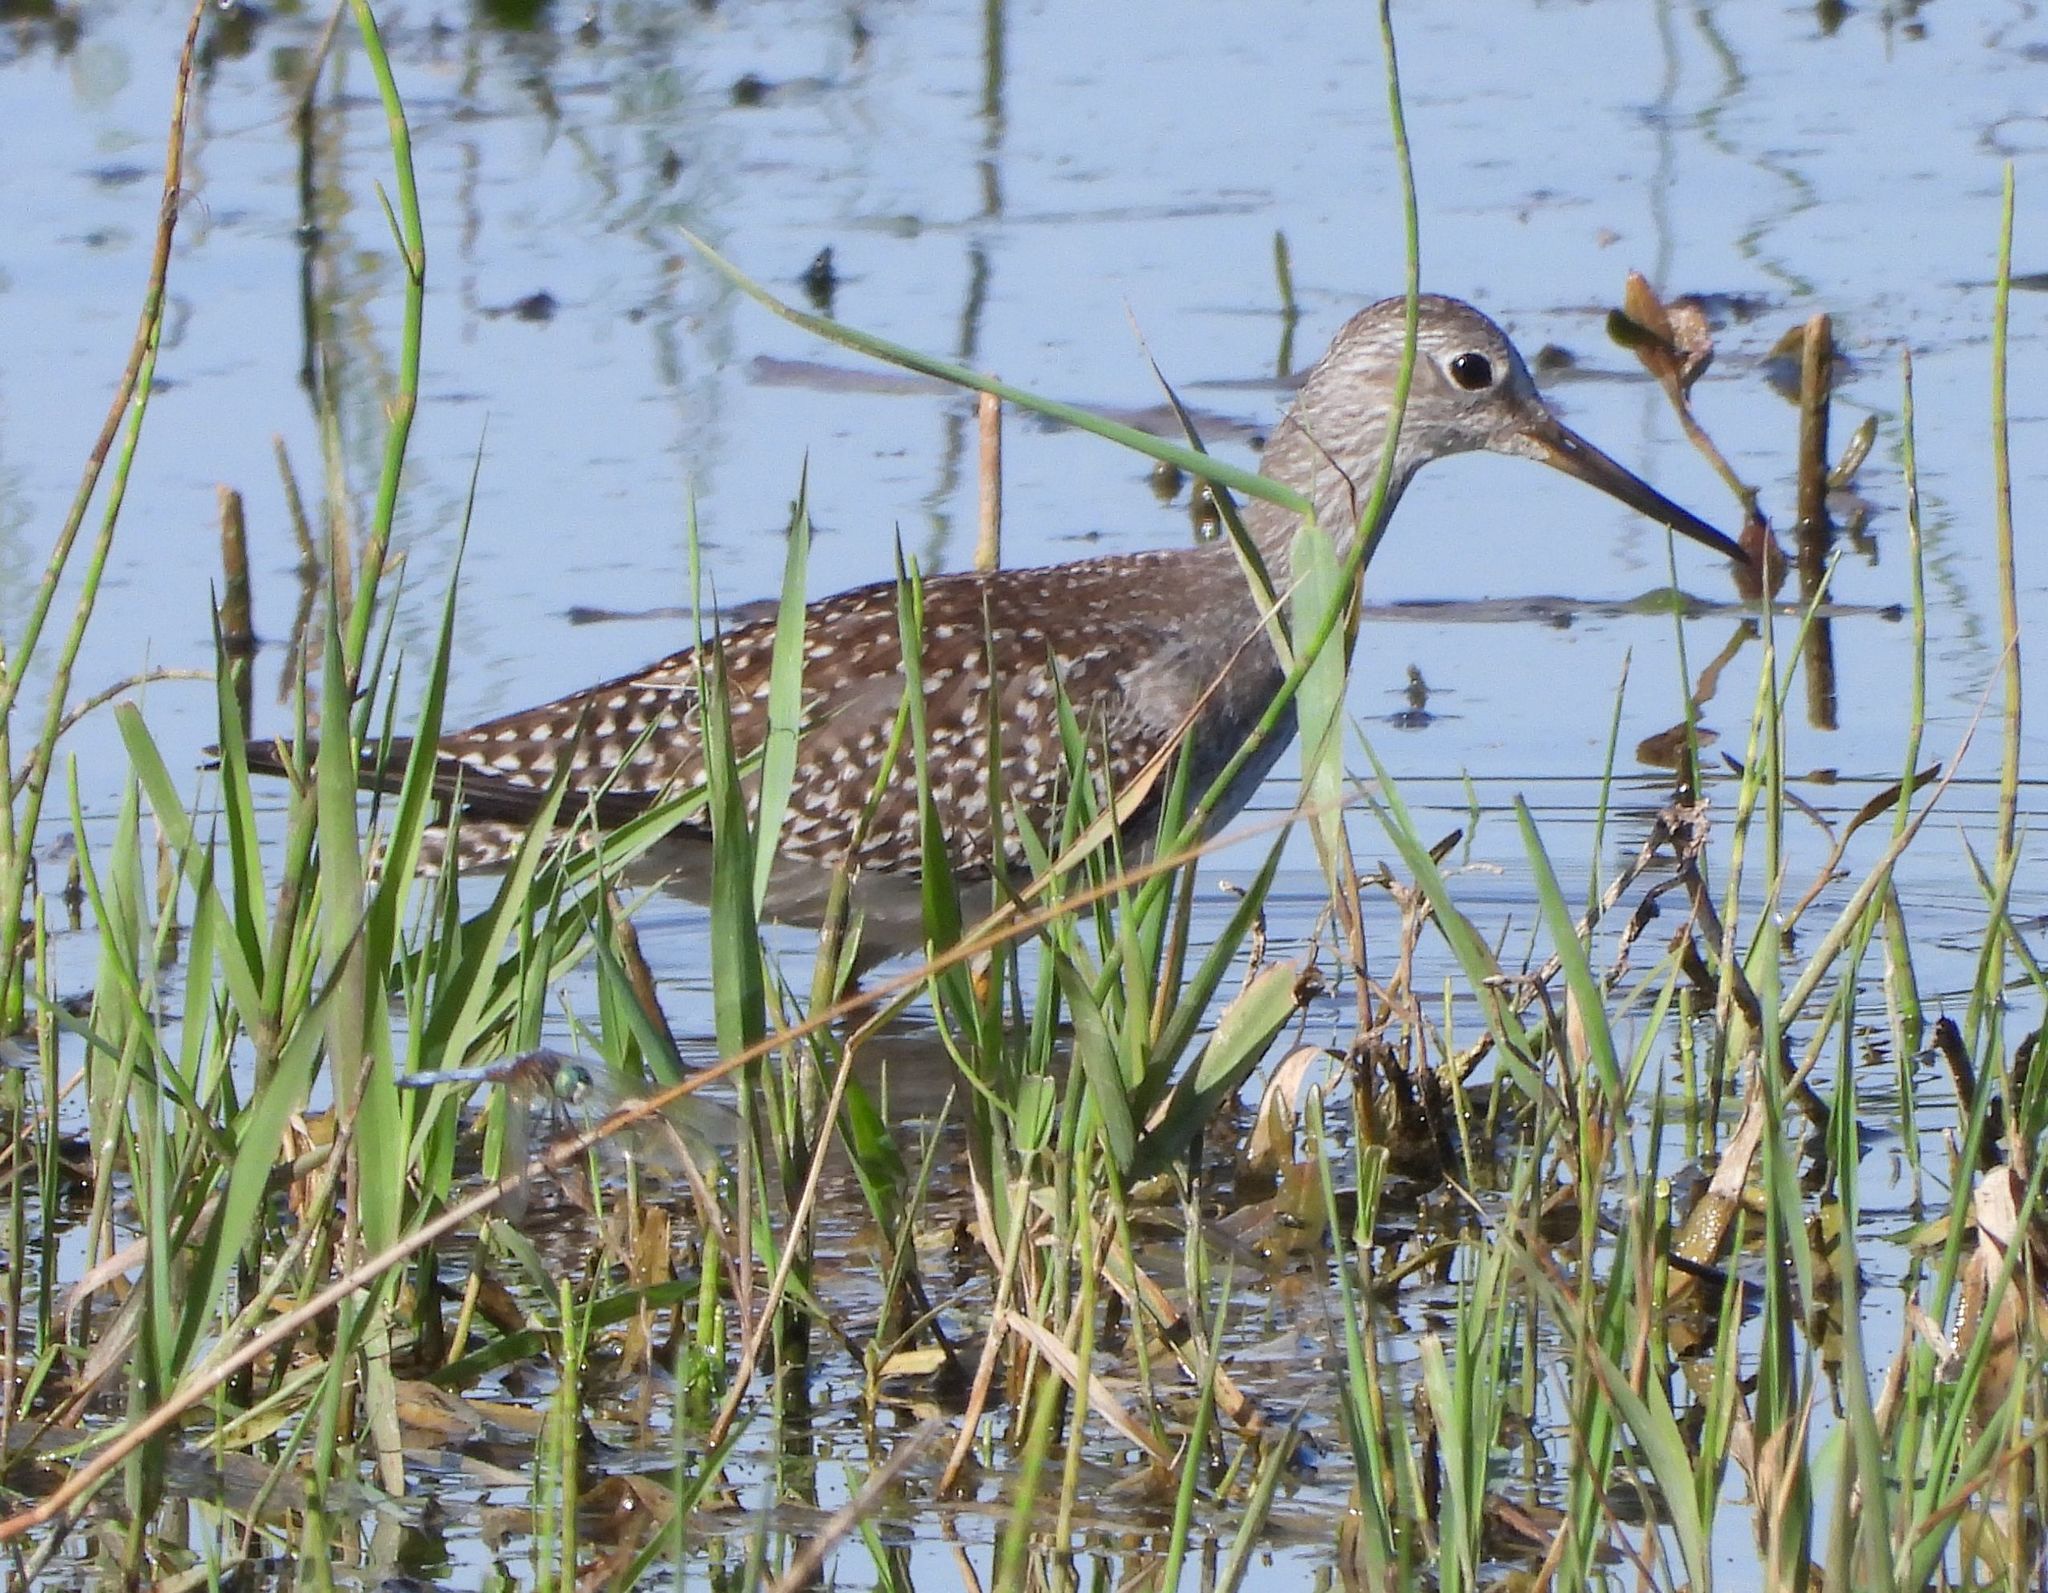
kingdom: Animalia
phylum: Chordata
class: Aves
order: Charadriiformes
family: Scolopacidae
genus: Tringa
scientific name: Tringa melanoleuca
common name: Greater yellowlegs
